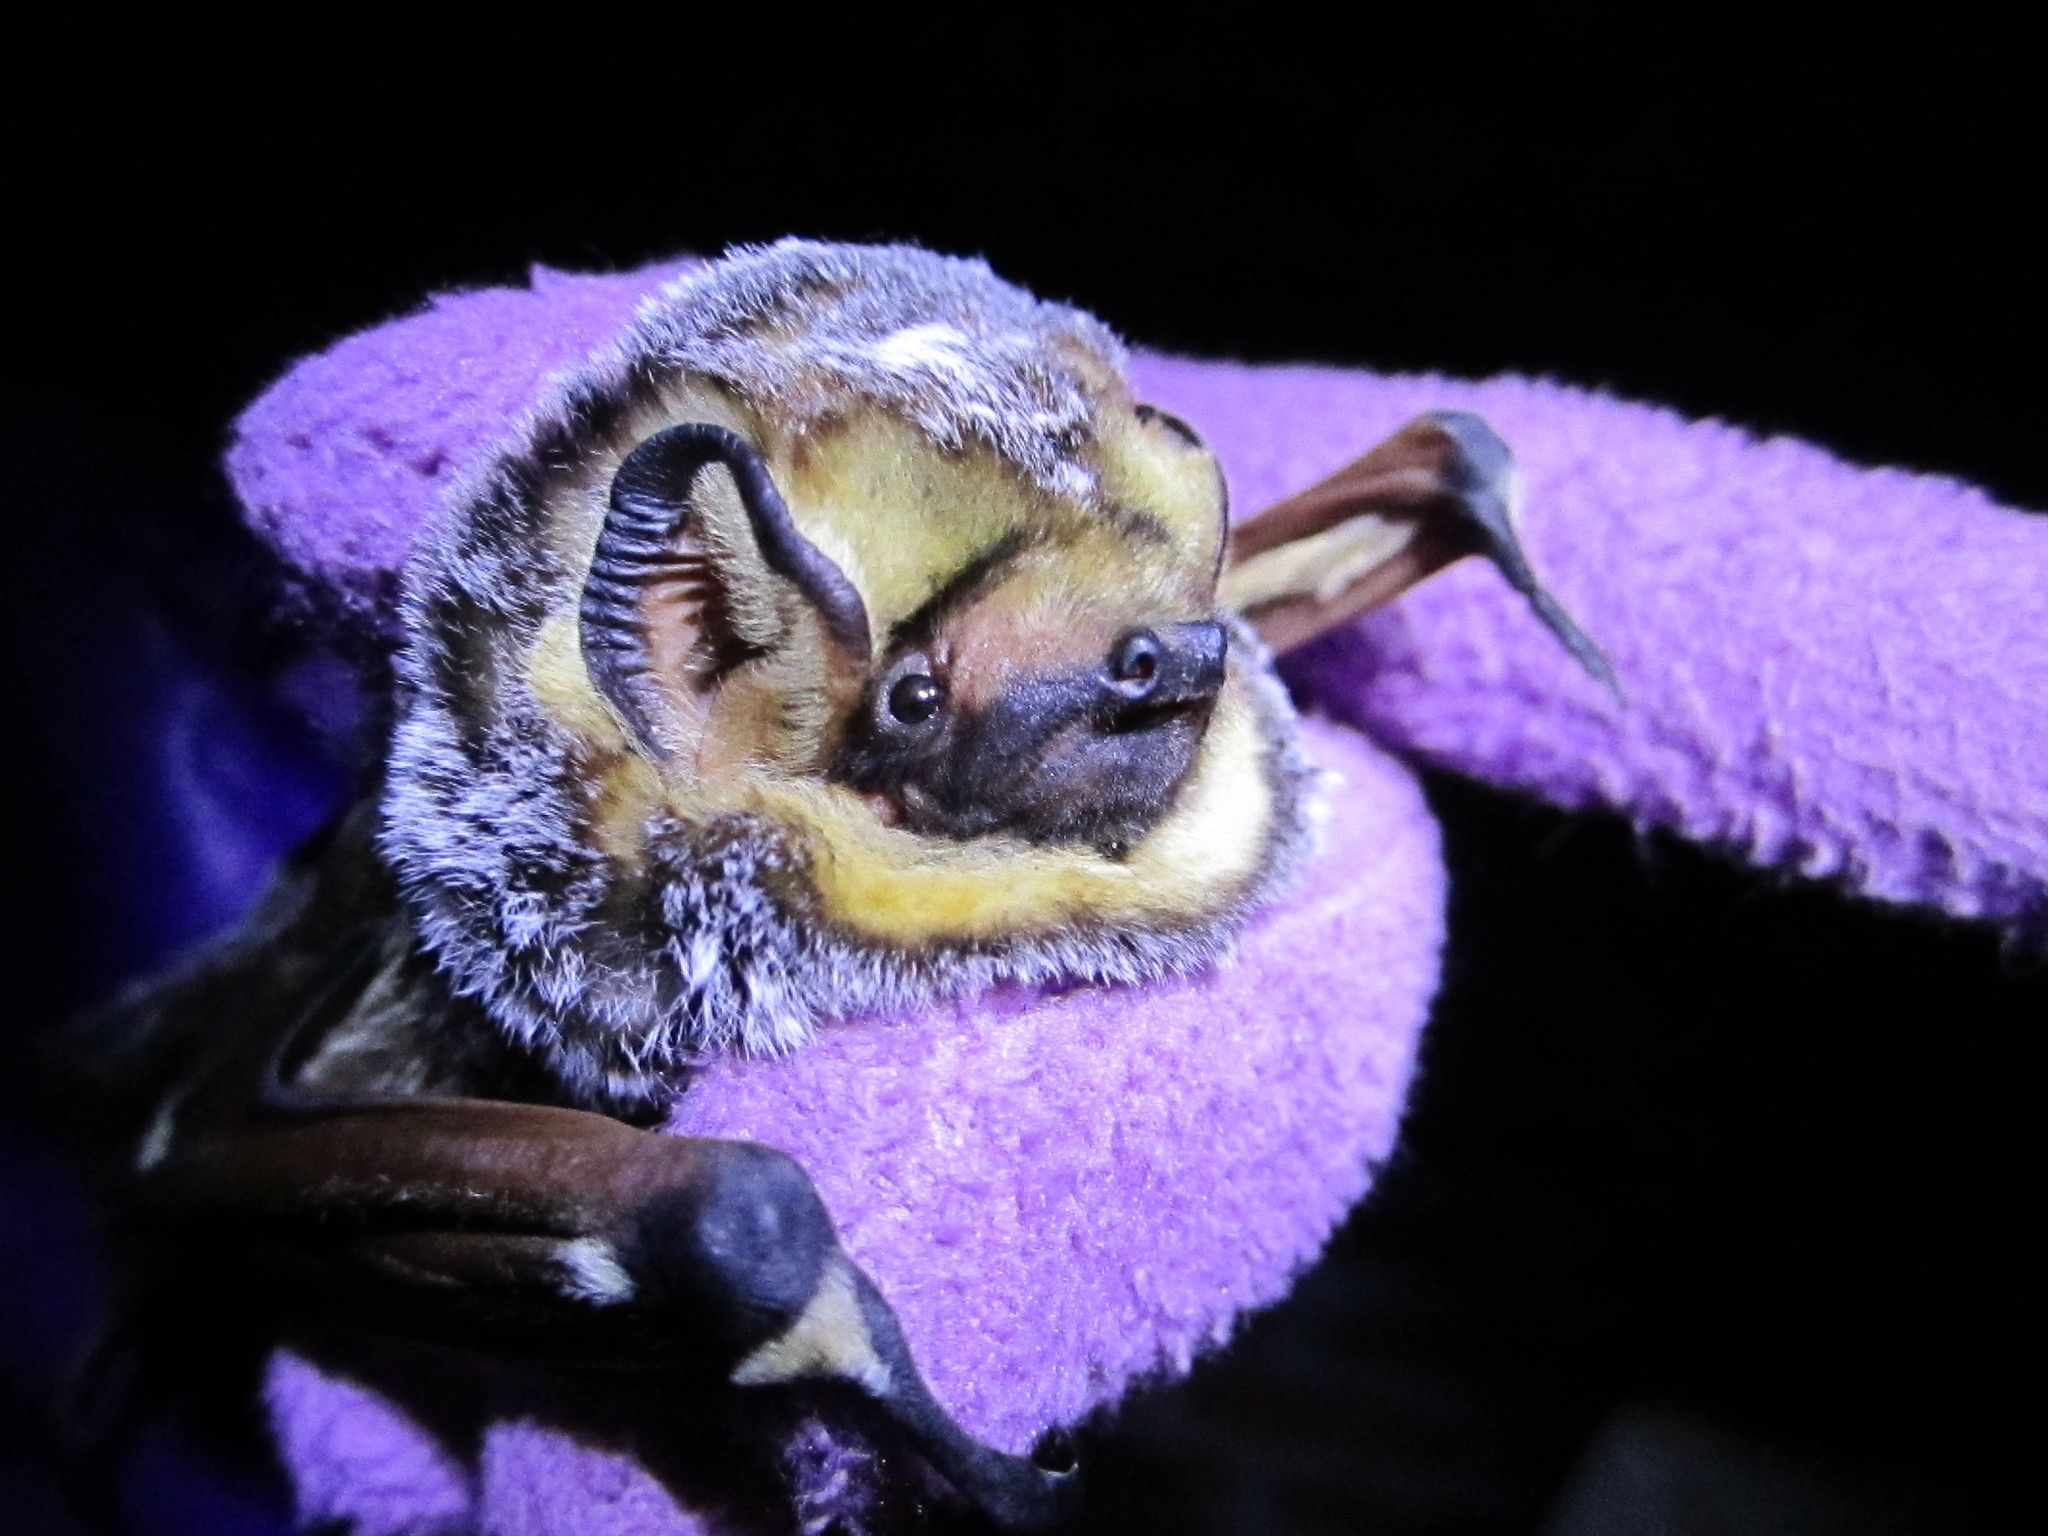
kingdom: Animalia
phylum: Chordata
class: Mammalia
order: Chiroptera
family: Vespertilionidae
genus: Aeorestes
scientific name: Aeorestes cinereus
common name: North american hoary bat
